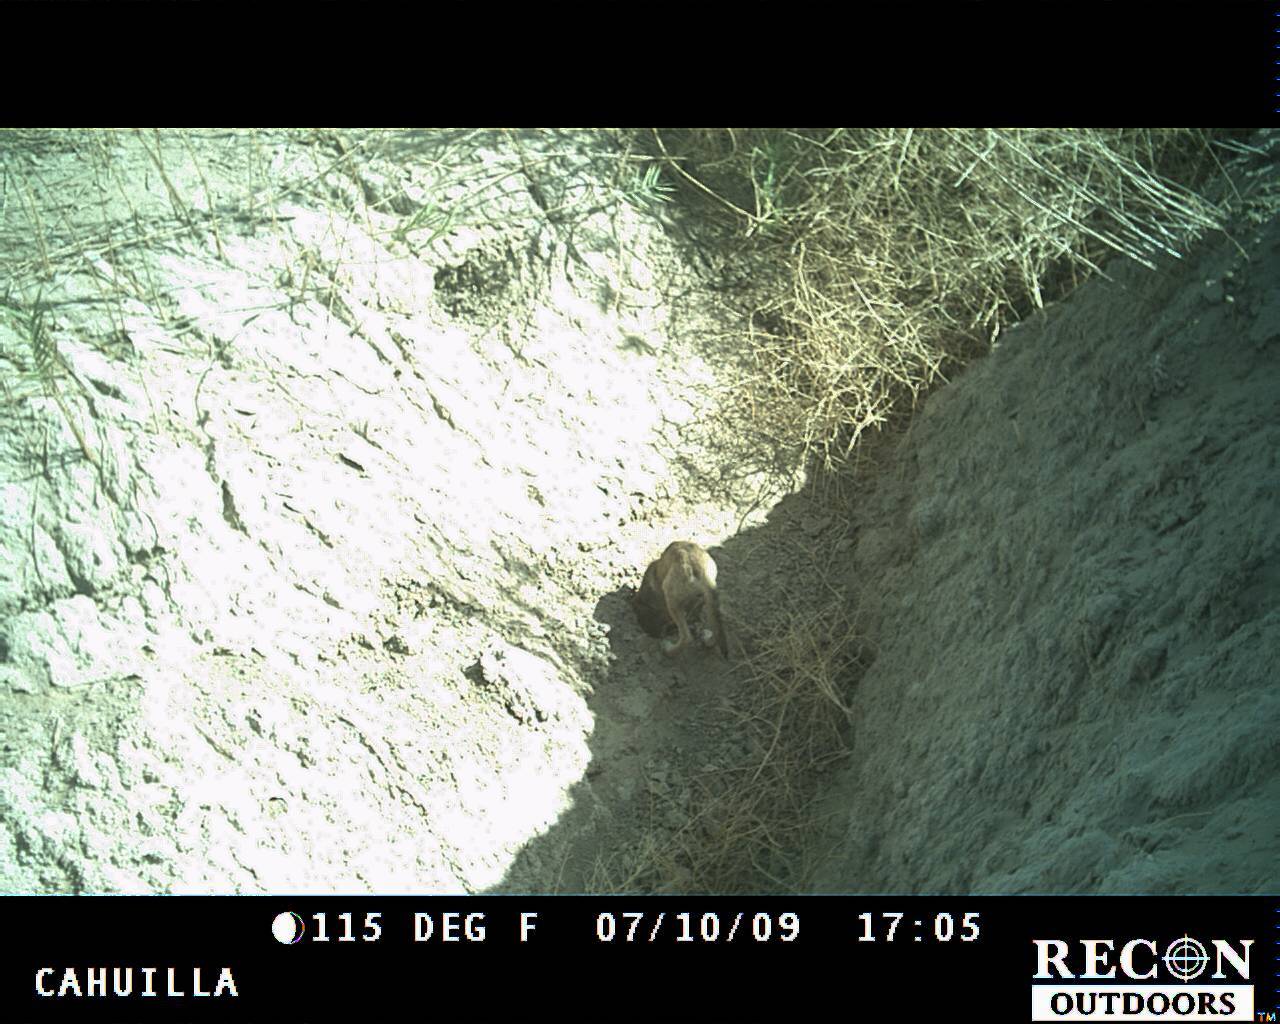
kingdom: Animalia
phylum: Chordata
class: Mammalia
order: Carnivora
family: Canidae
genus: Canis
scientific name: Canis latrans
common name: Coyote
